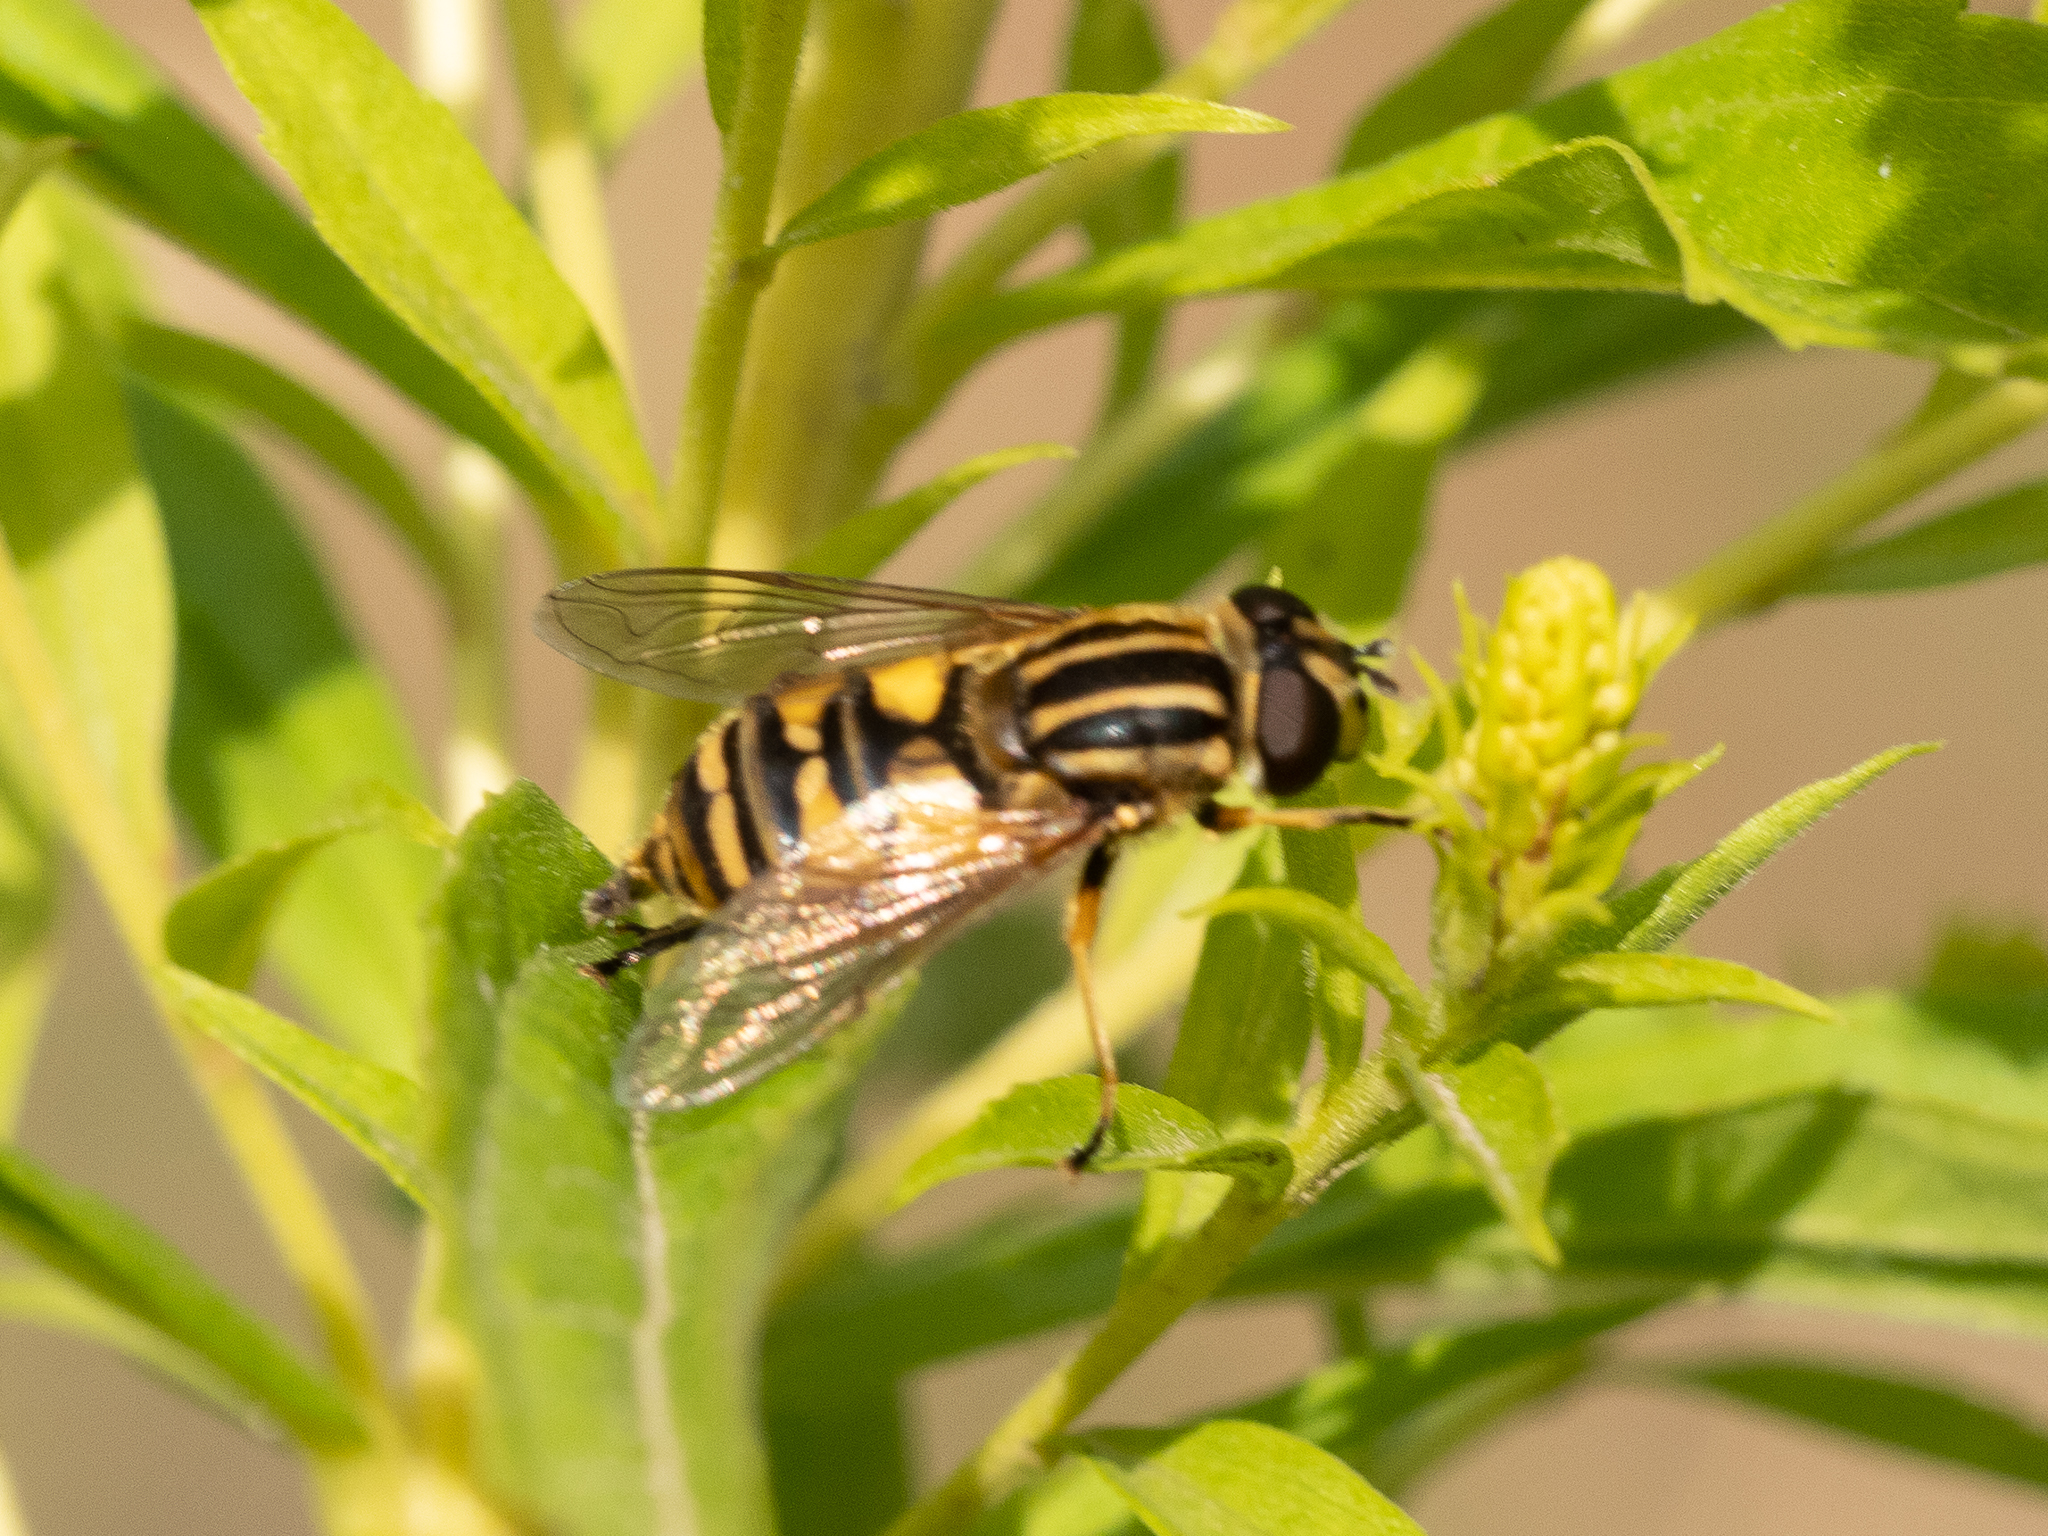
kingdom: Animalia
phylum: Arthropoda
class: Insecta
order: Diptera
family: Syrphidae
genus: Helophilus
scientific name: Helophilus pendulus
